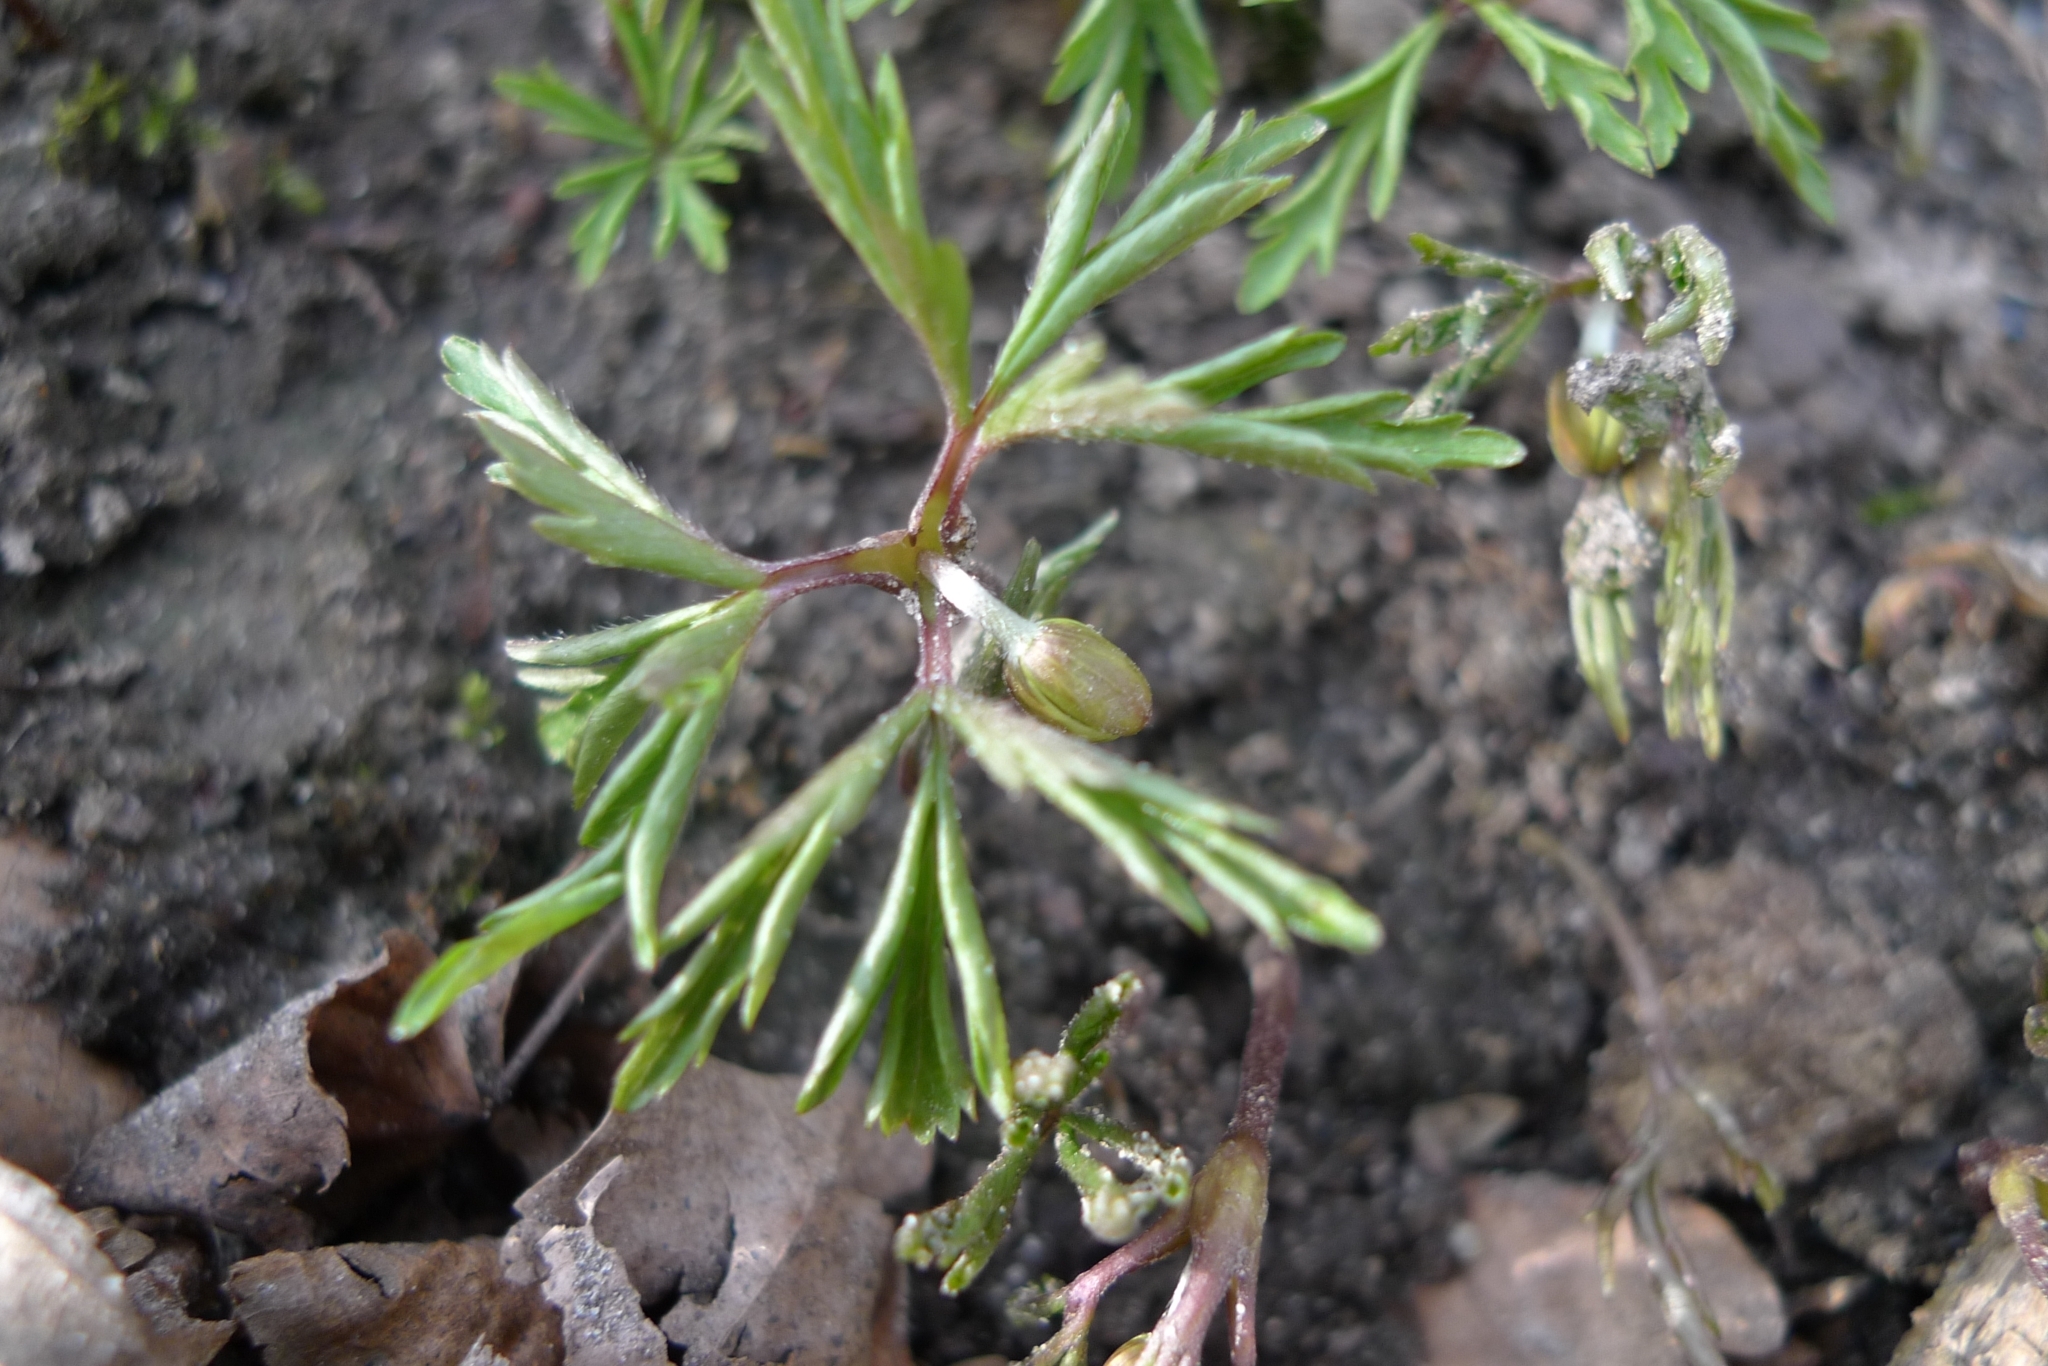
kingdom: Plantae
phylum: Tracheophyta
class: Magnoliopsida
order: Ranunculales
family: Ranunculaceae
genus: Anemone
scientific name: Anemone nemorosa
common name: Wood anemone
